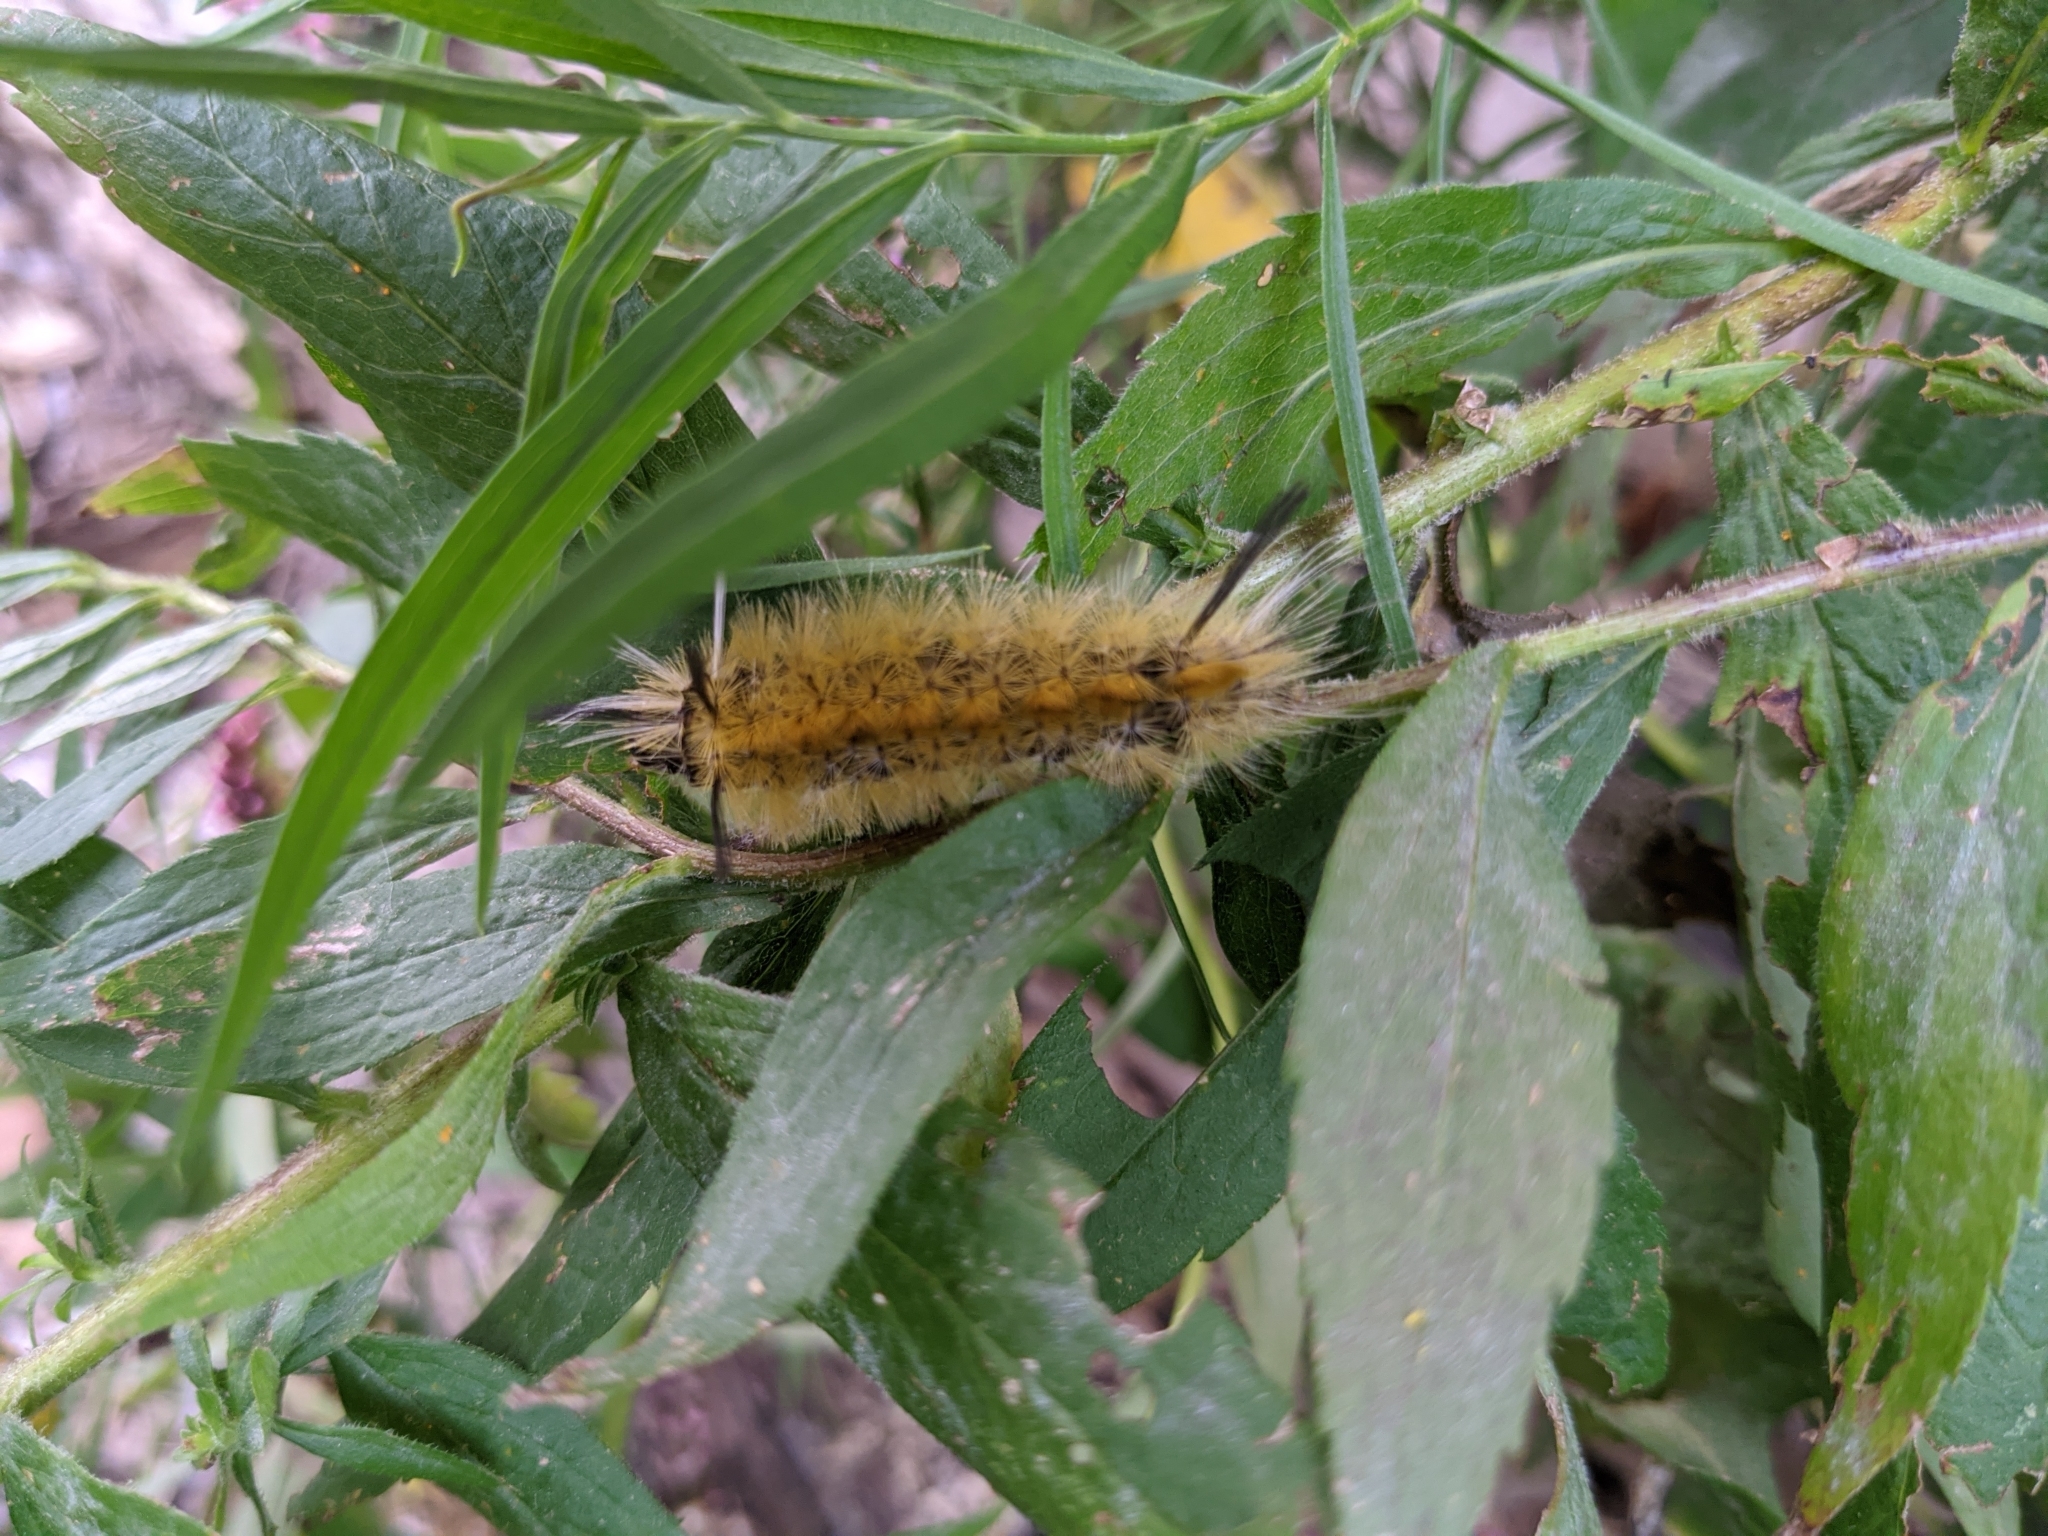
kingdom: Animalia
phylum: Arthropoda
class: Insecta
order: Lepidoptera
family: Erebidae
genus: Halysidota
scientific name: Halysidota tessellaris
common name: Banded tussock moth
